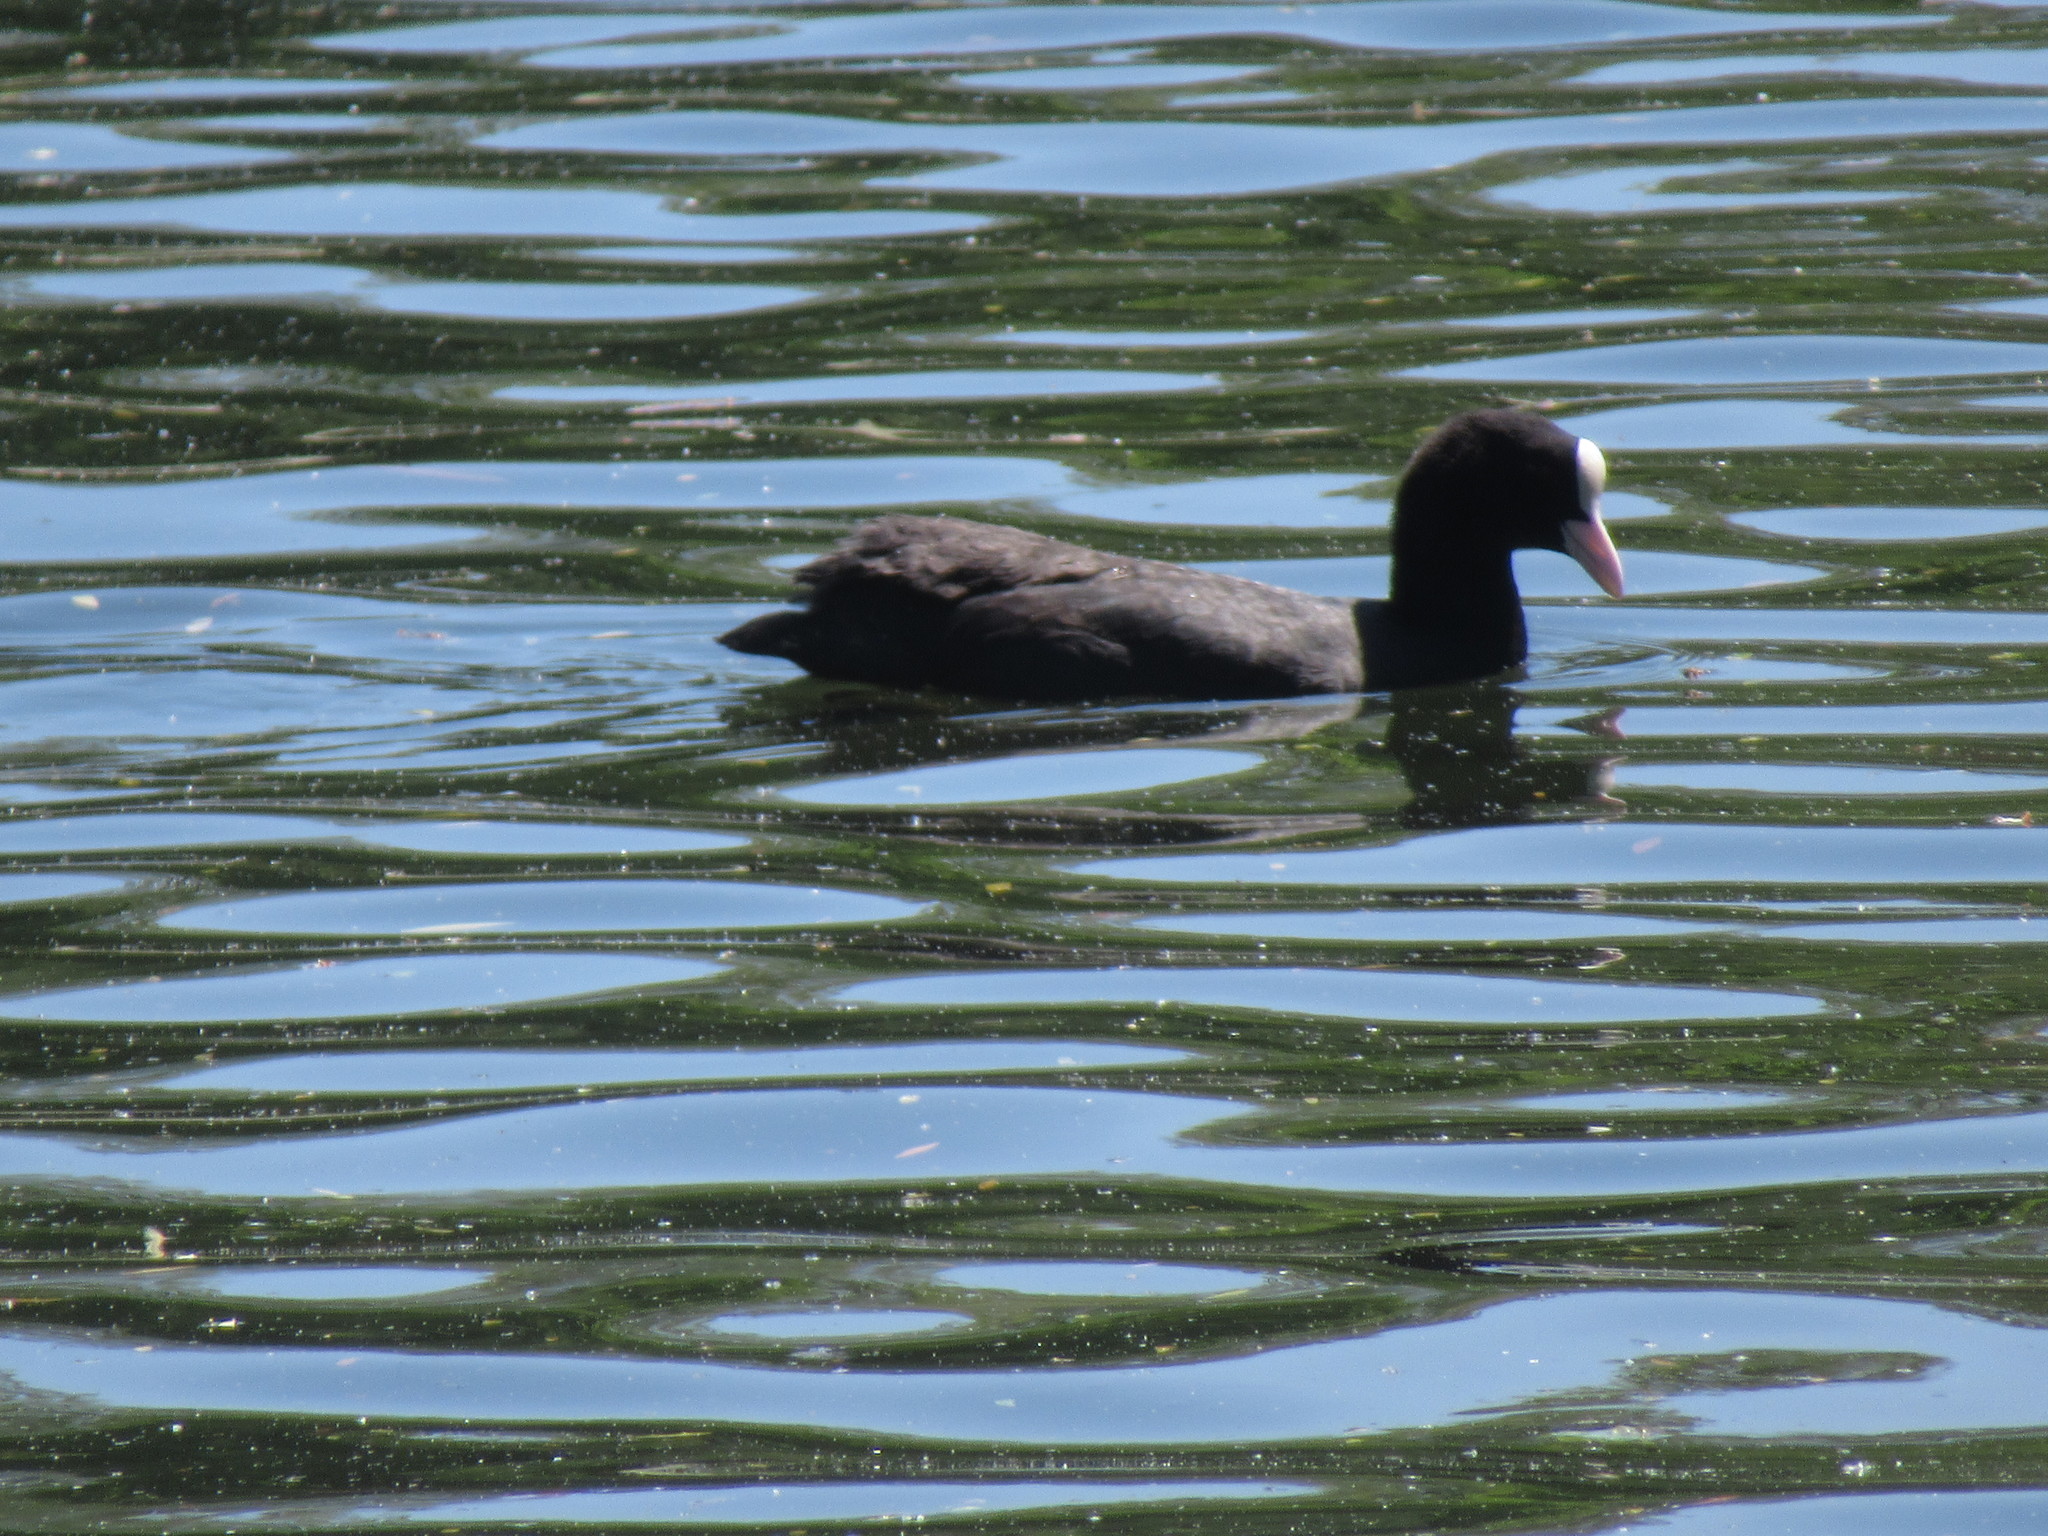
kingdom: Animalia
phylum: Chordata
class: Aves
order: Gruiformes
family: Rallidae
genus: Fulica
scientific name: Fulica atra
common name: Eurasian coot
